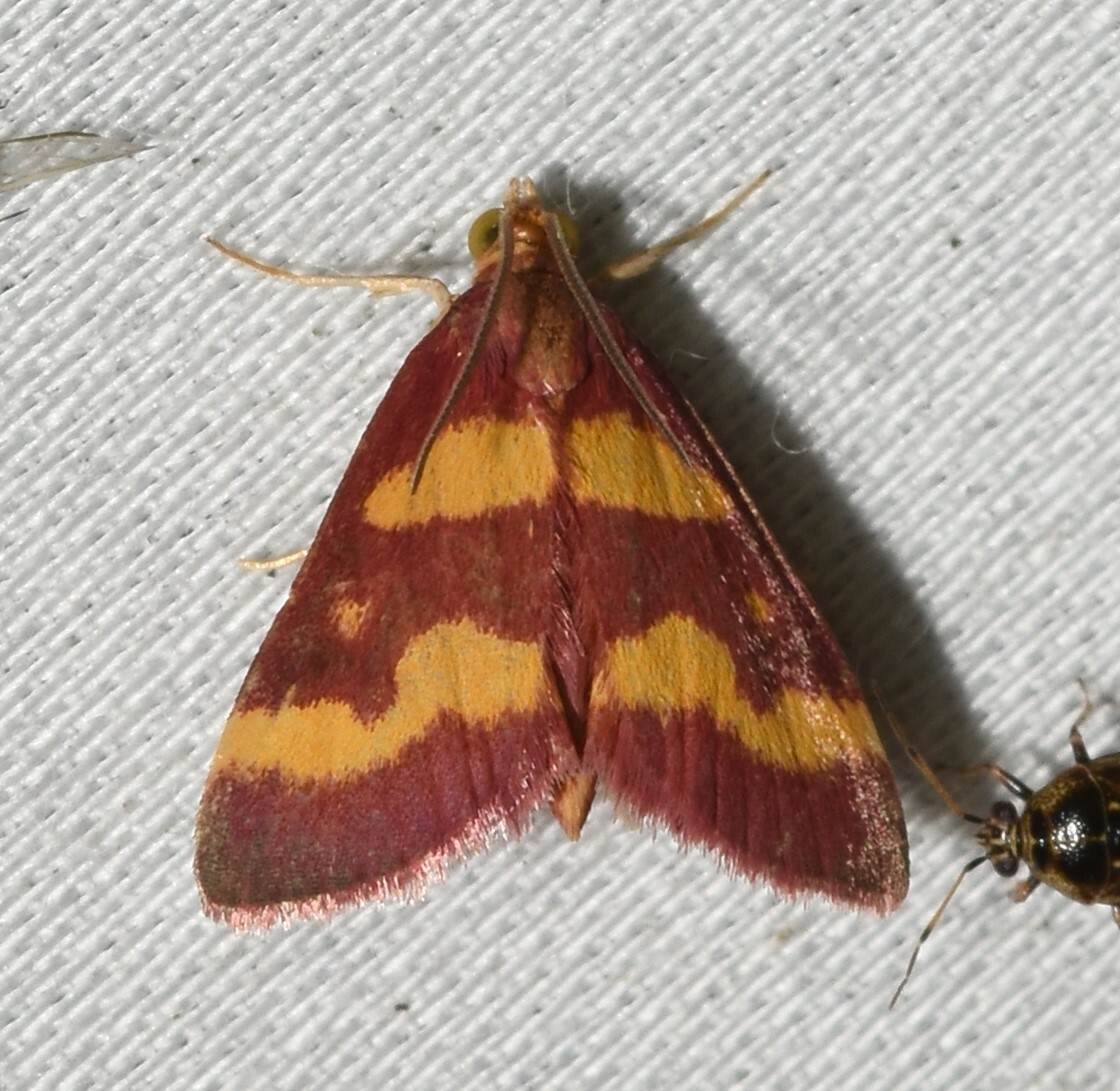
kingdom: Animalia
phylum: Arthropoda
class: Insecta
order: Lepidoptera
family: Crambidae
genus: Pyrausta
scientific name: Pyrausta tyralis
